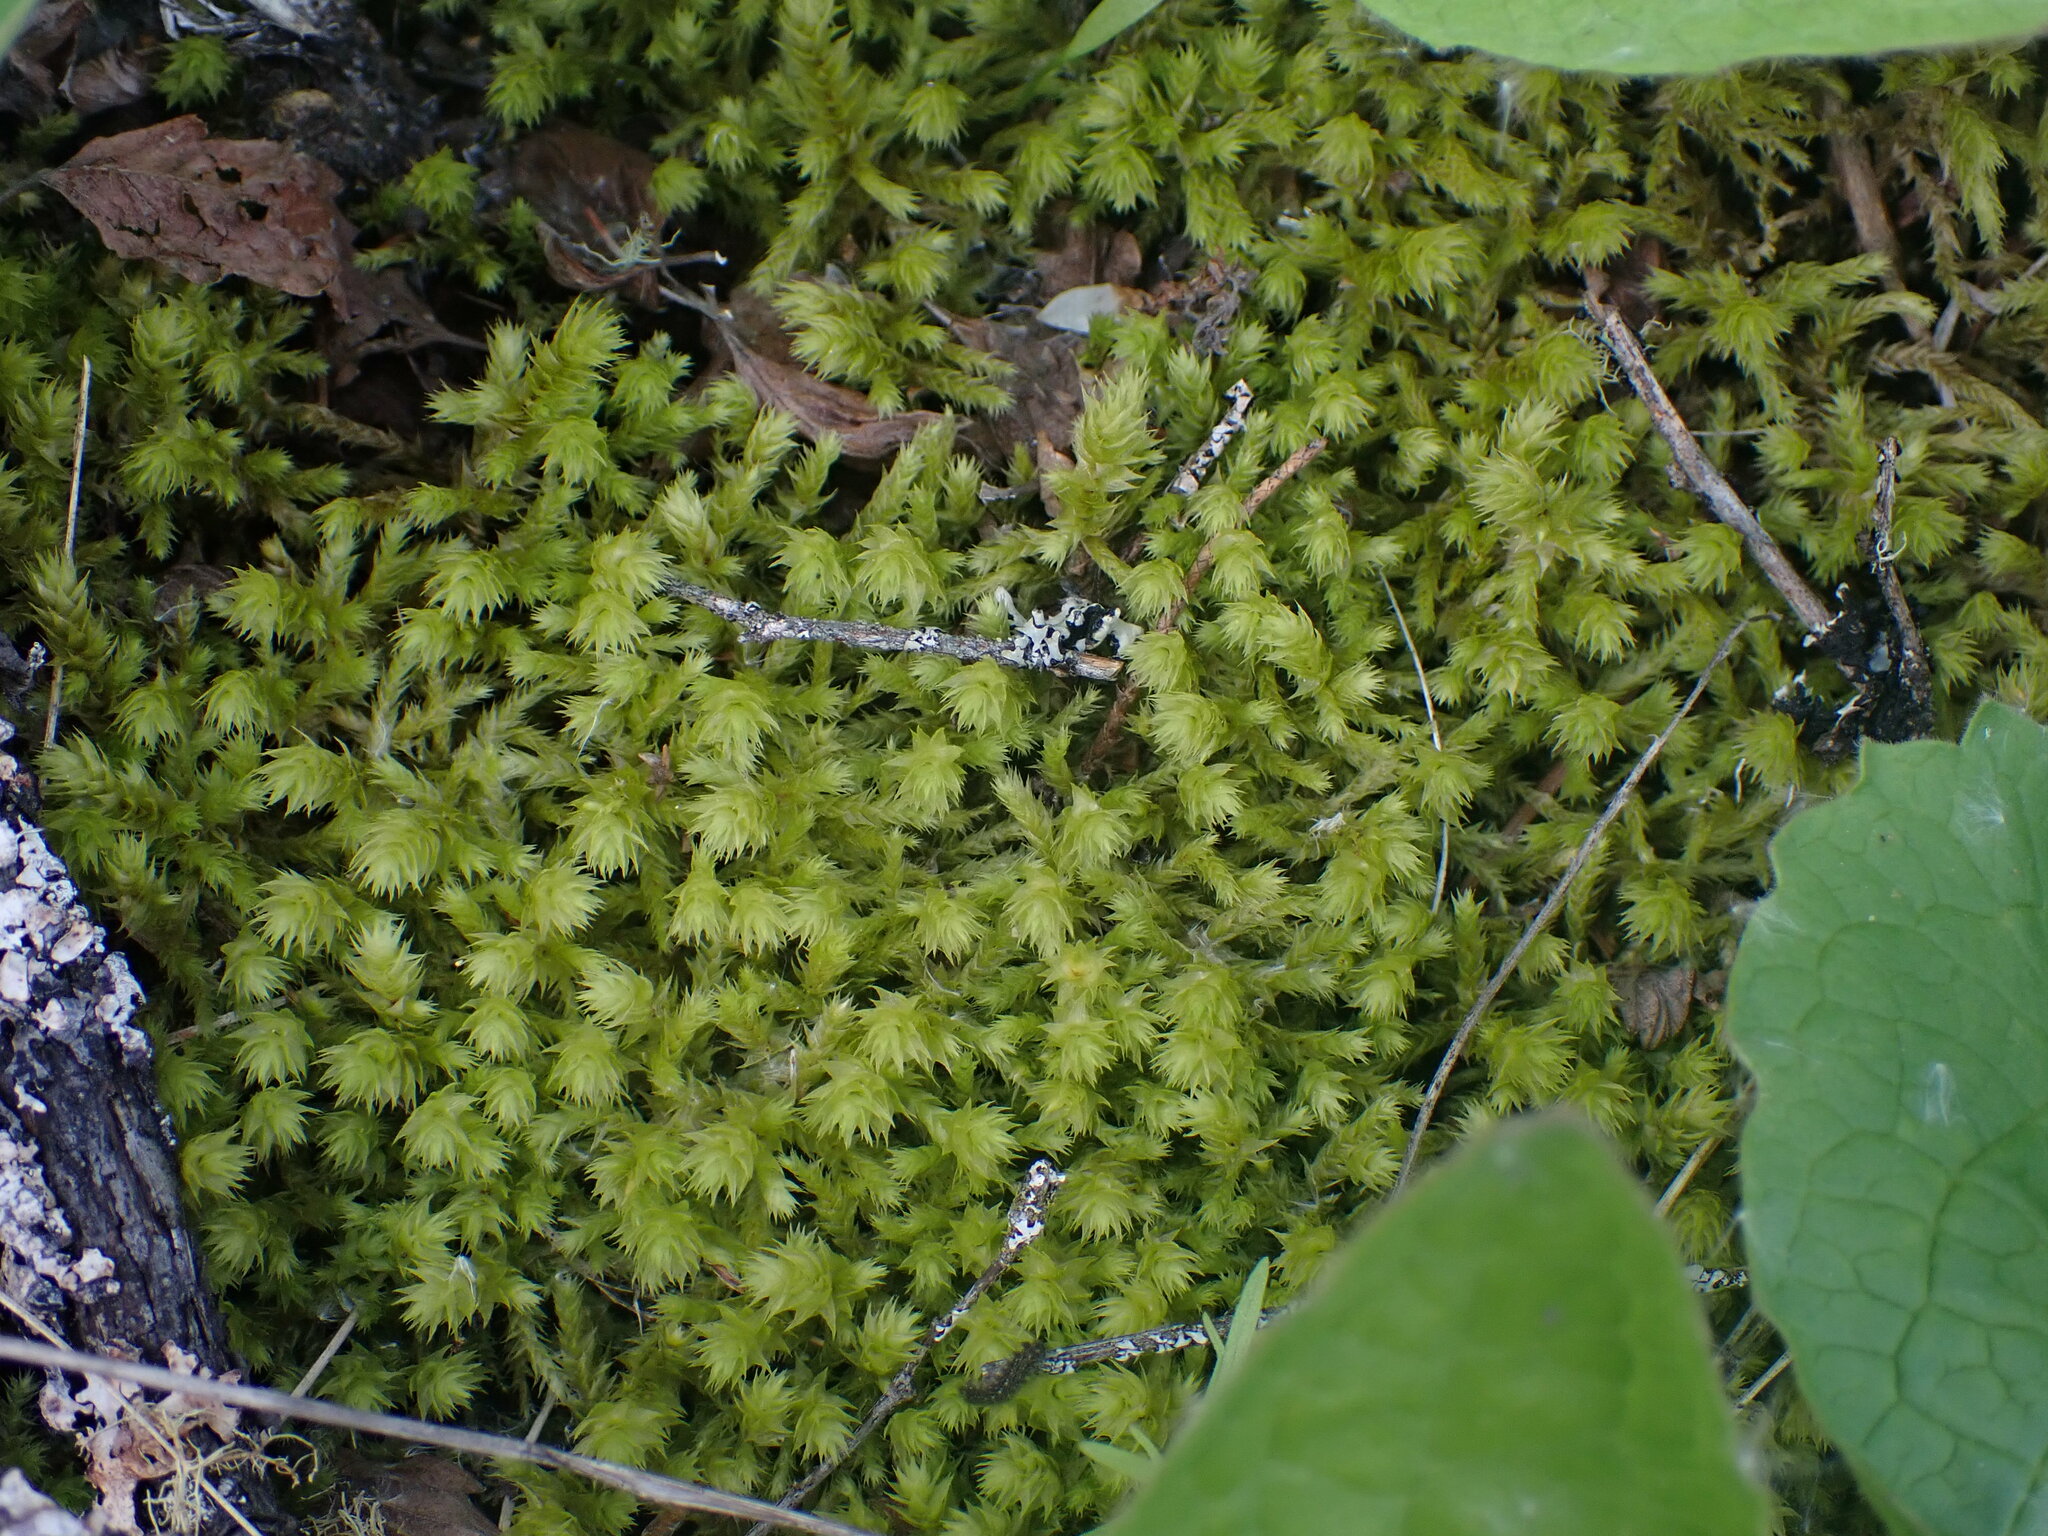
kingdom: Plantae
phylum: Bryophyta
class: Bryopsida
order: Hypnales
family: Hylocomiaceae
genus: Hylocomiadelphus
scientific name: Hylocomiadelphus triquetrus
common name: Rough goose neck moss
